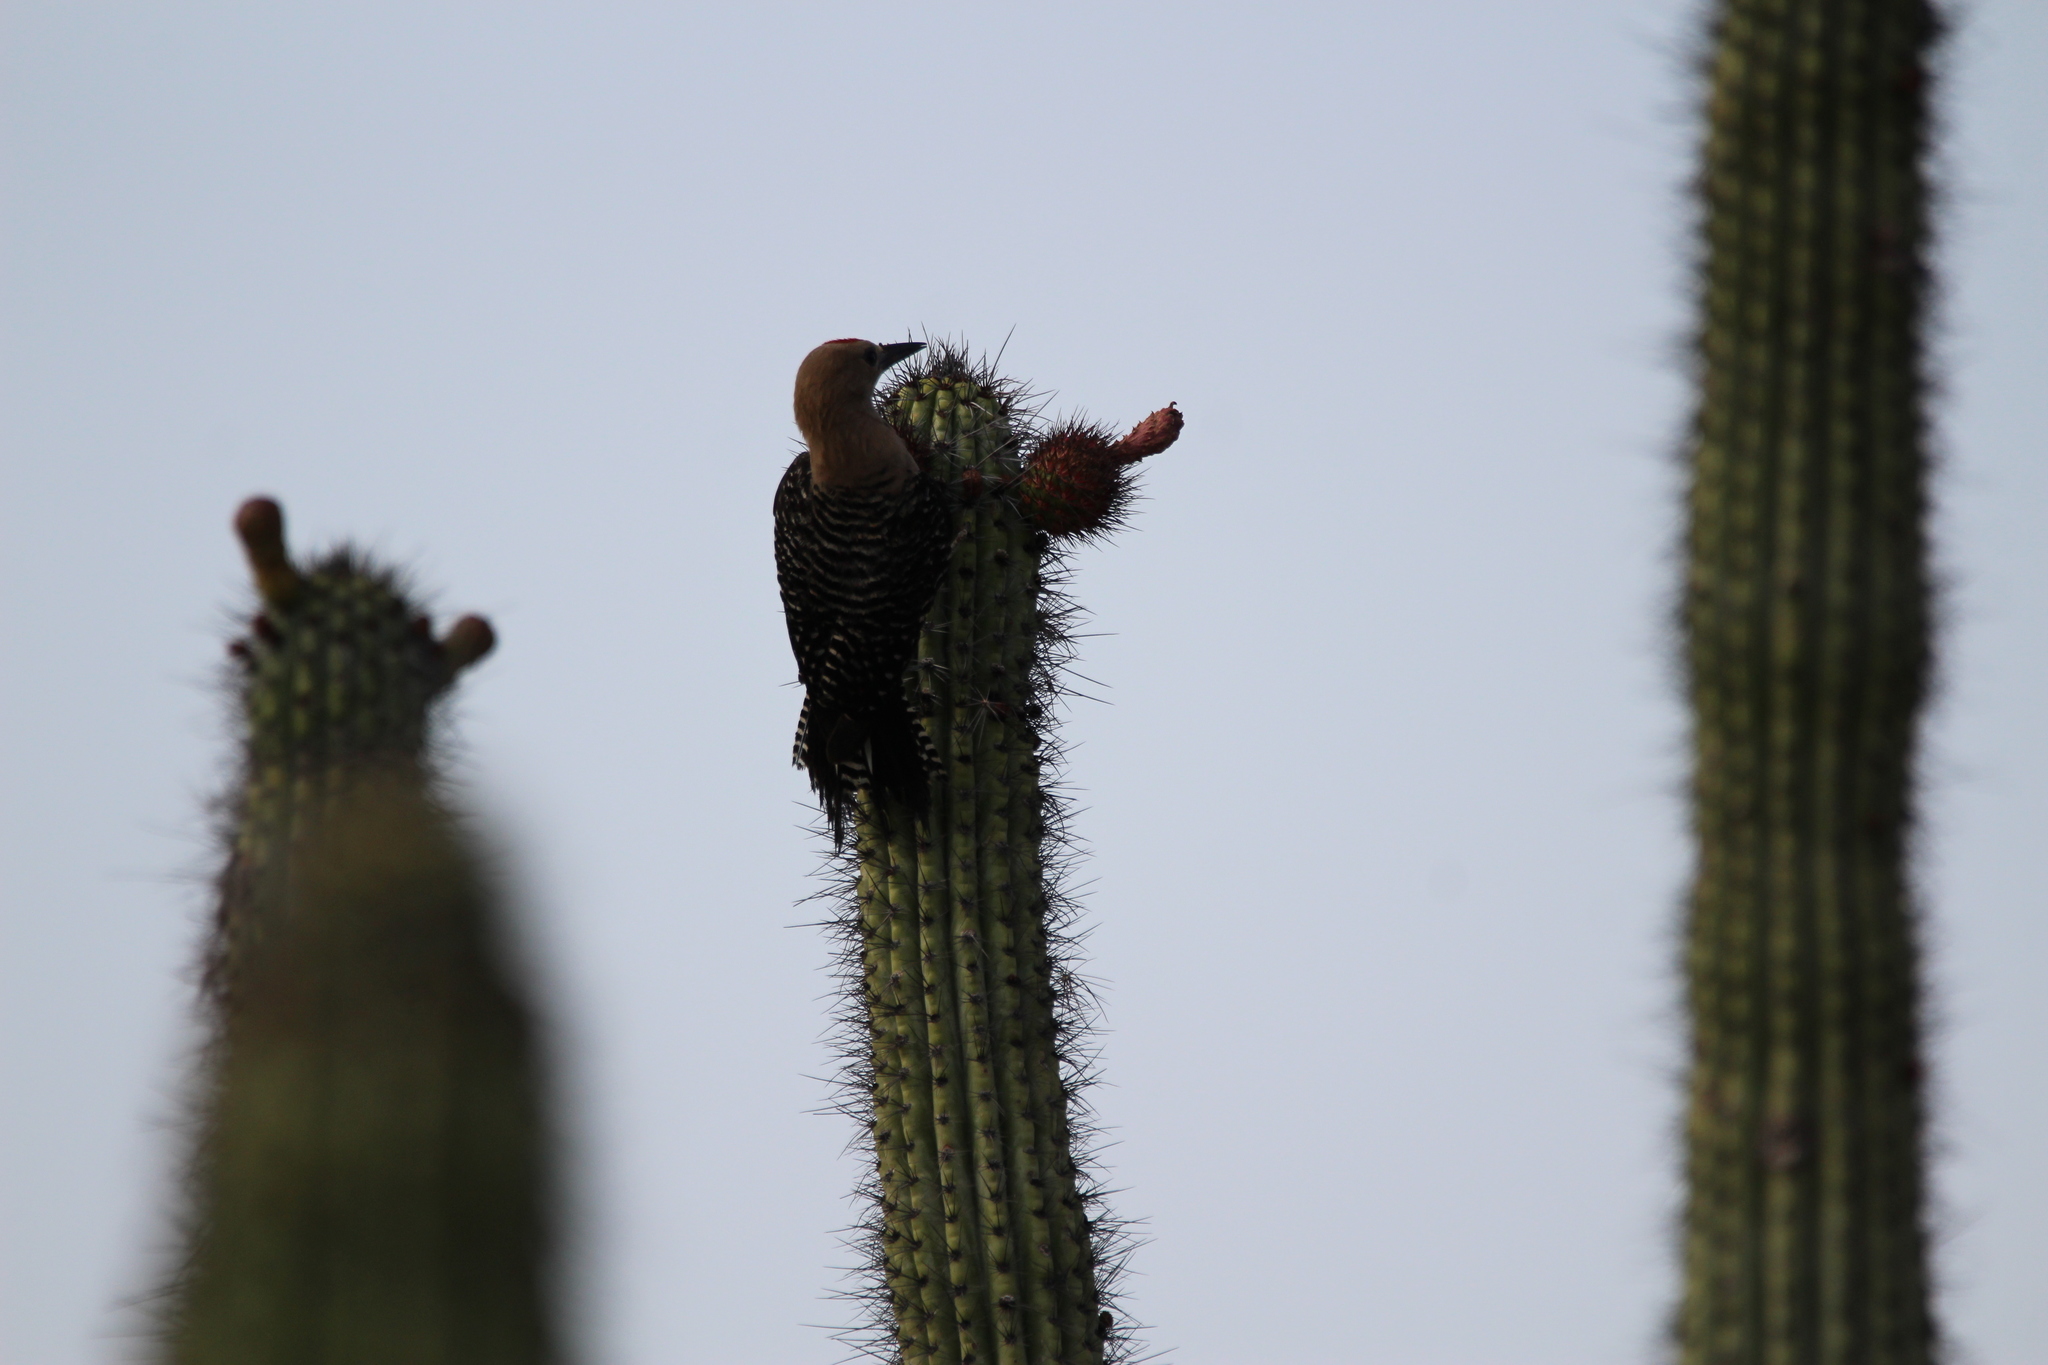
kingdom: Animalia
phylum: Chordata
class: Aves
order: Piciformes
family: Picidae
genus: Melanerpes
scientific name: Melanerpes uropygialis
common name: Gila woodpecker
